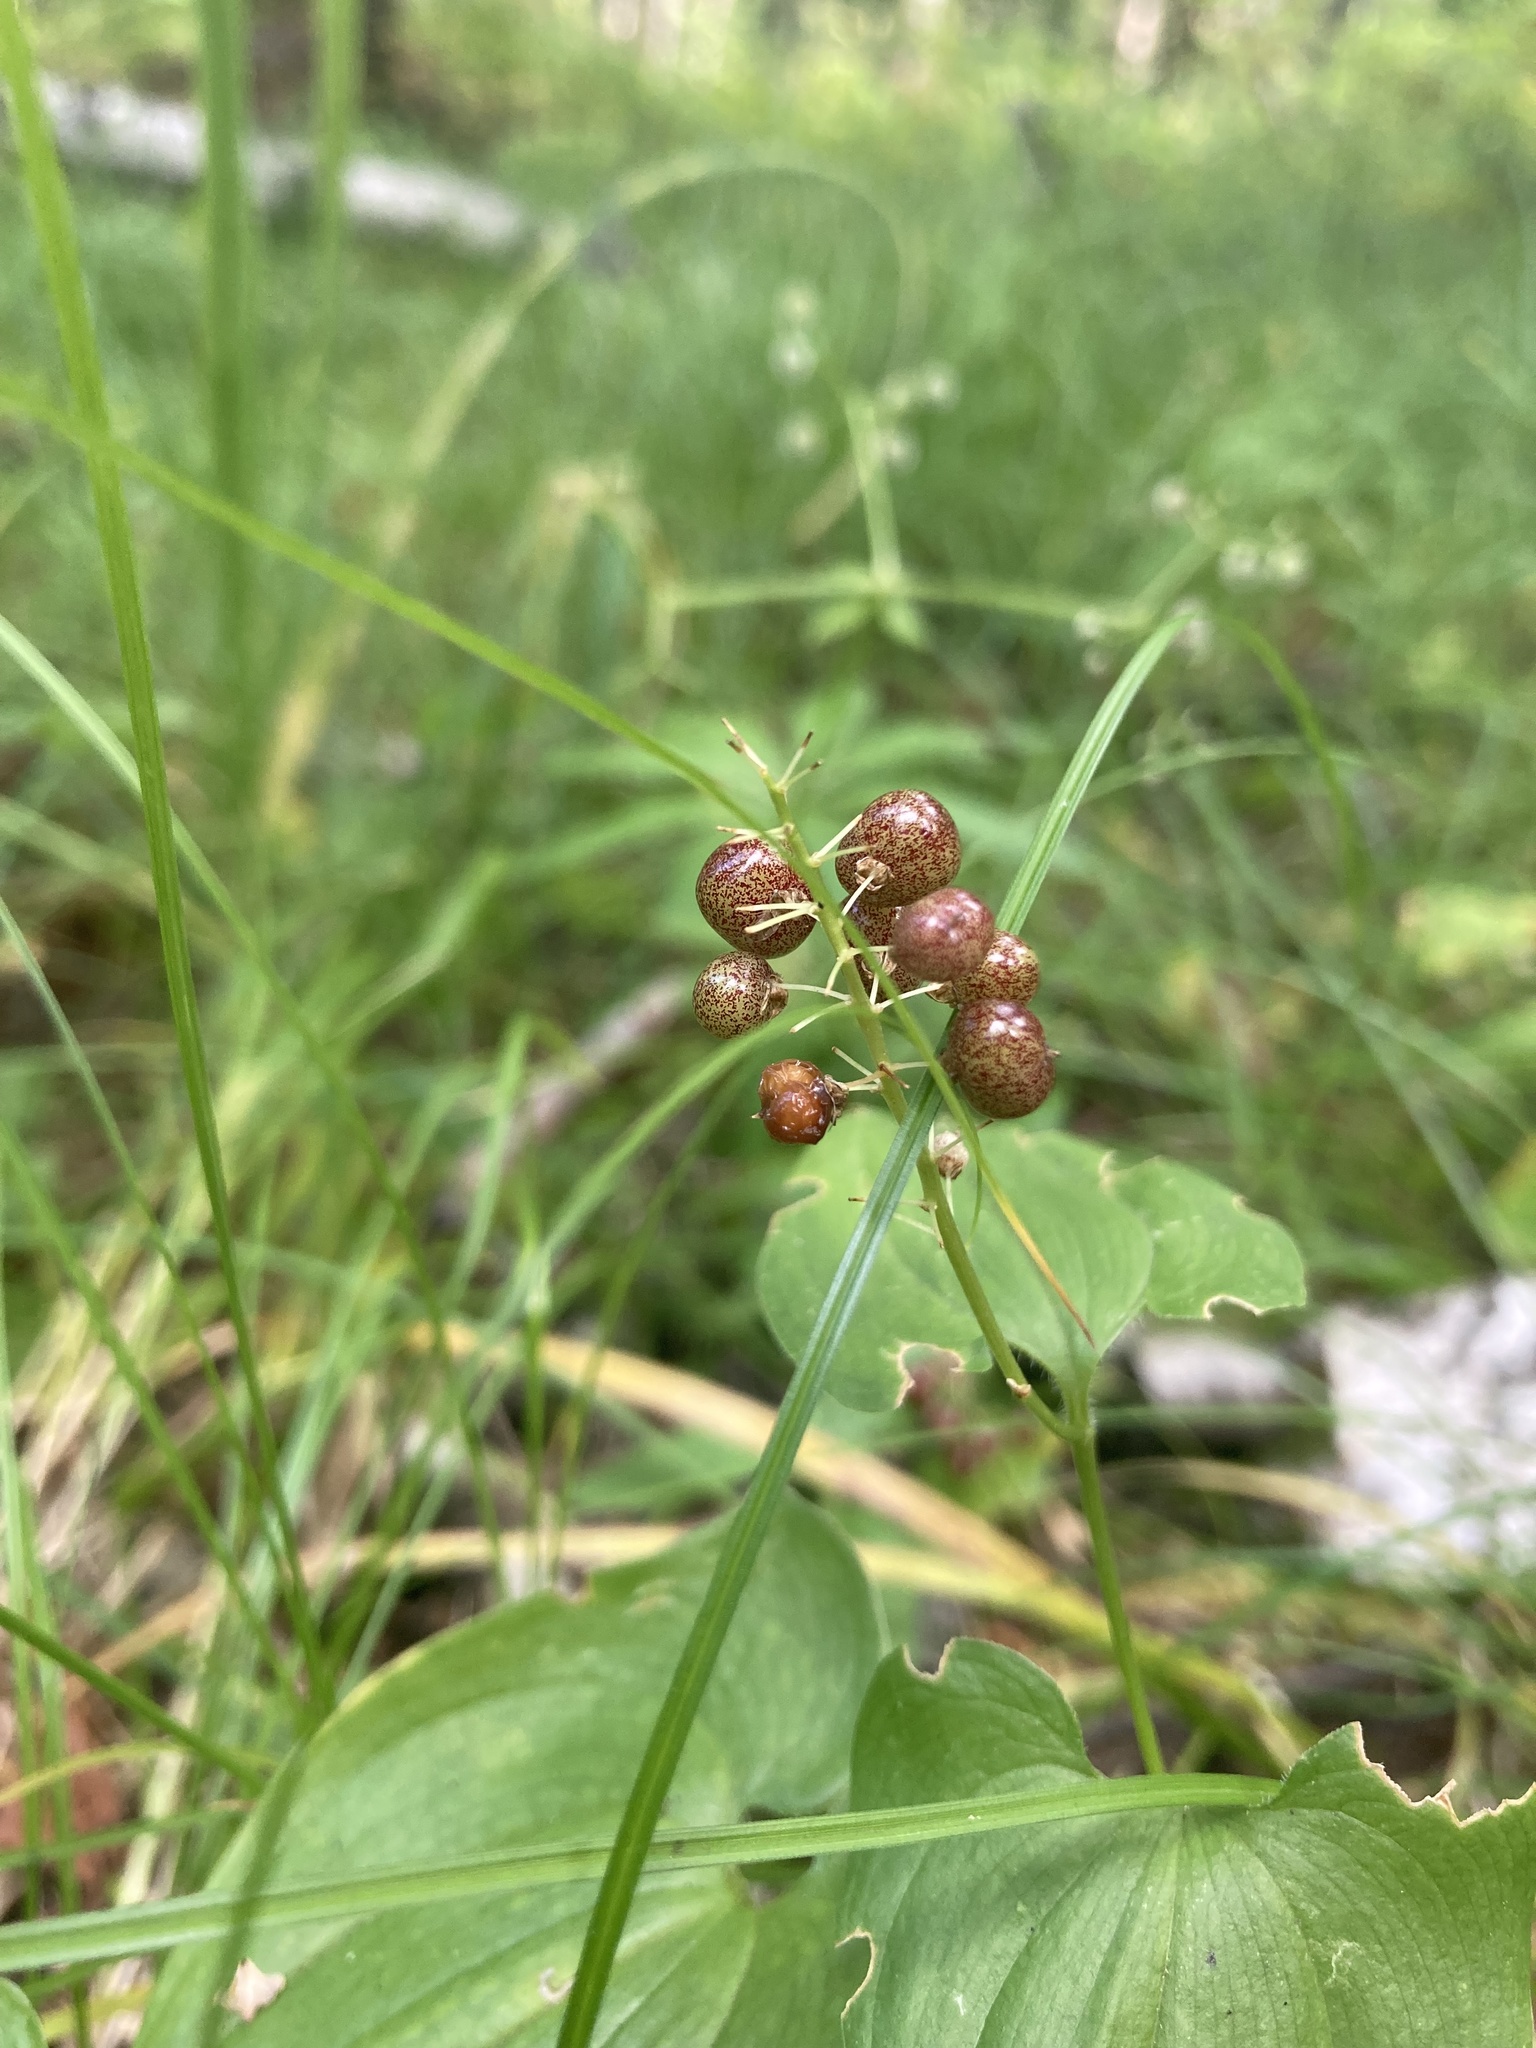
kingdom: Plantae
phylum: Tracheophyta
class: Liliopsida
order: Asparagales
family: Asparagaceae
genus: Maianthemum
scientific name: Maianthemum bifolium
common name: May lily
